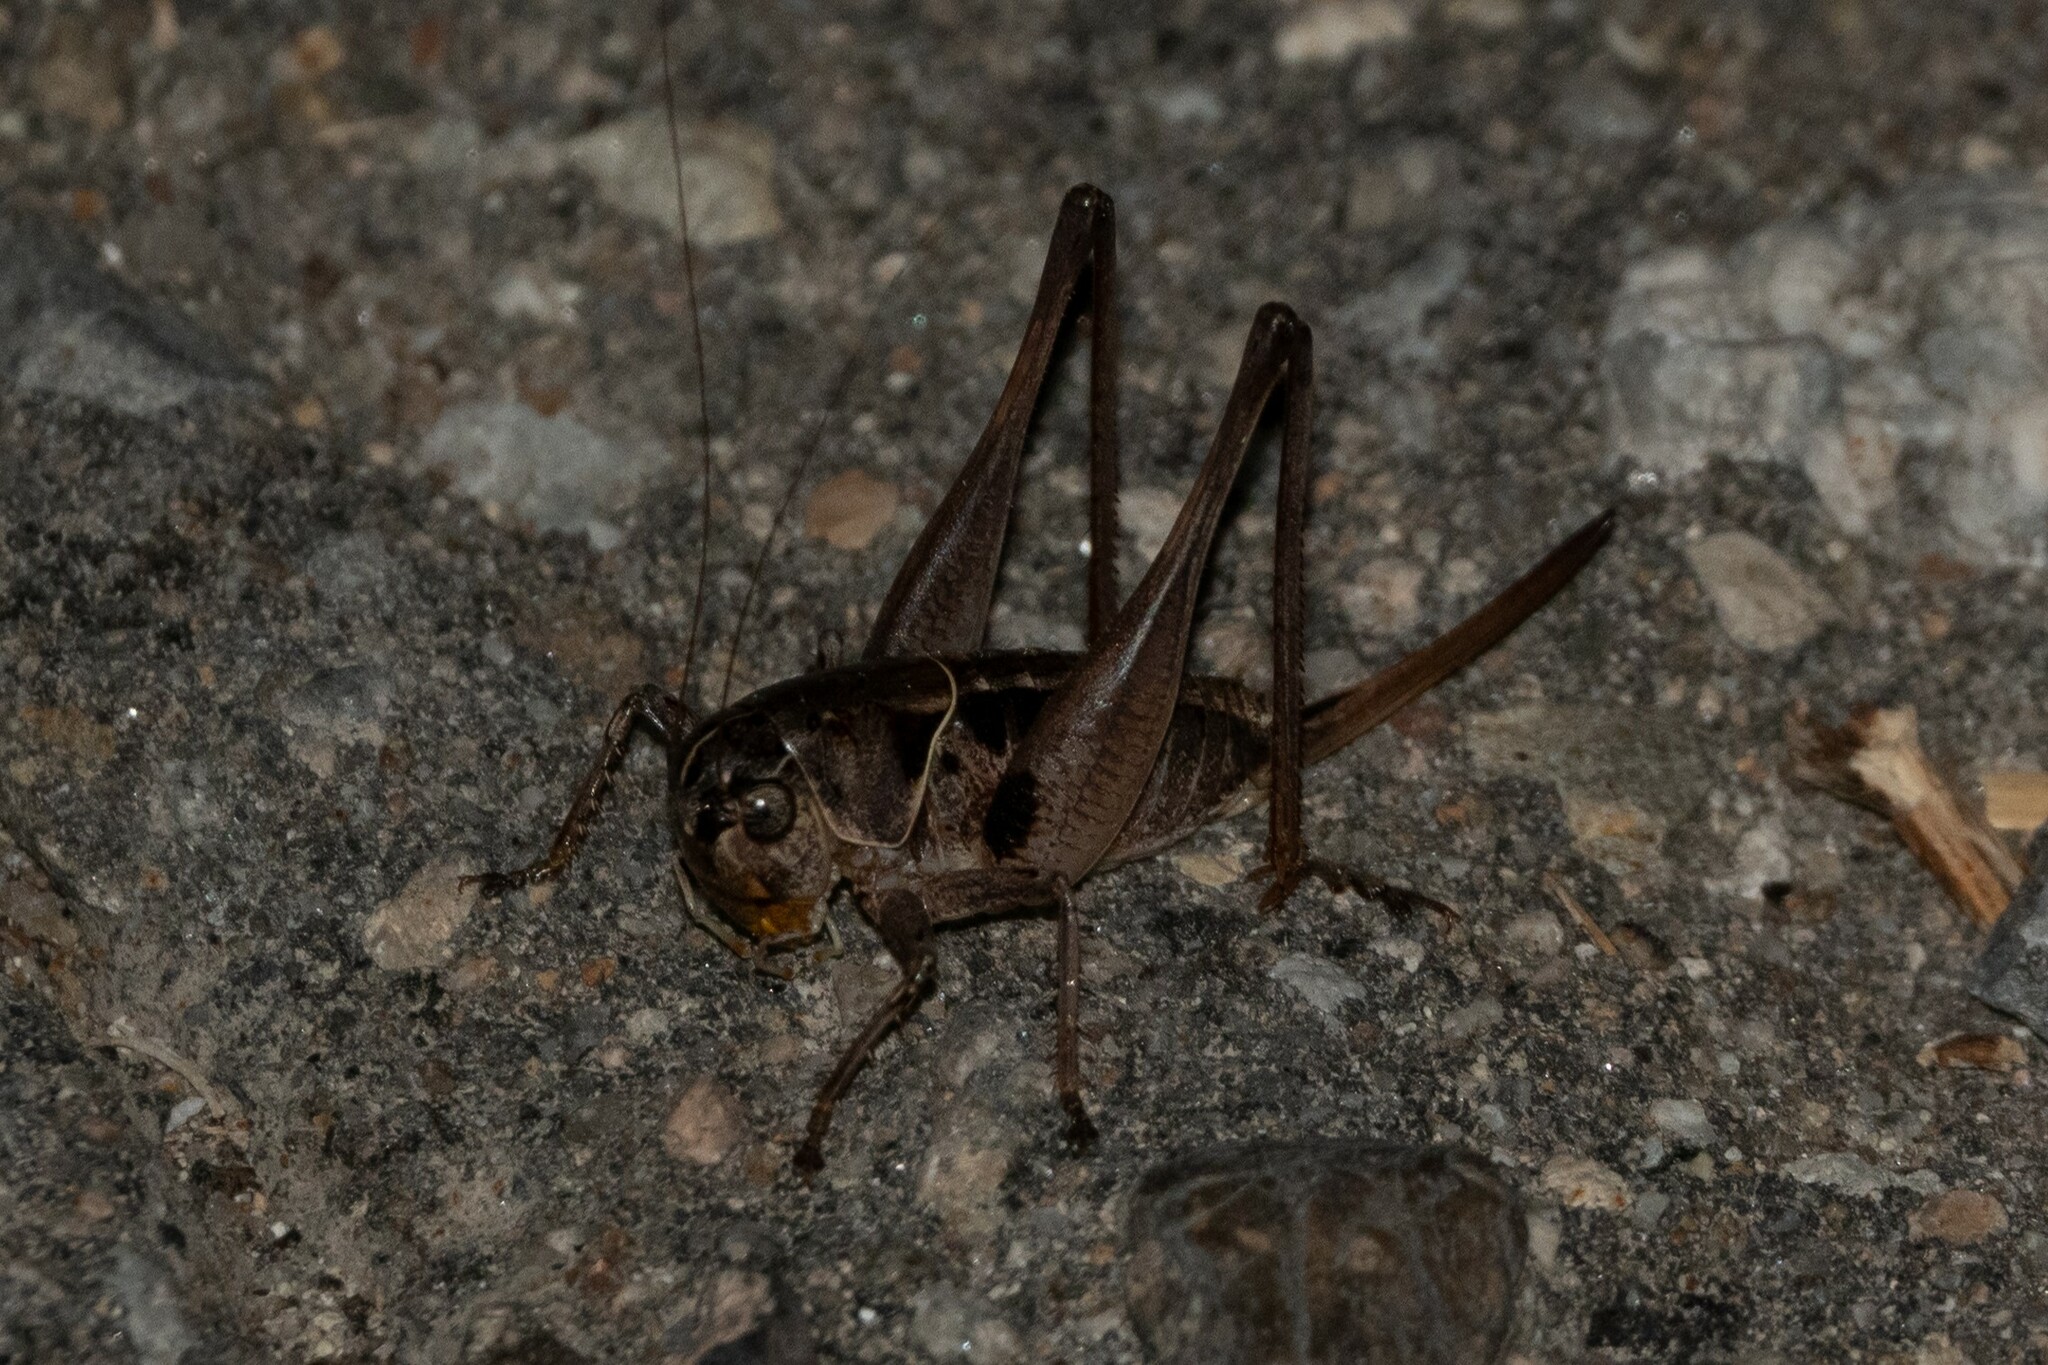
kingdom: Animalia
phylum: Arthropoda
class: Insecta
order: Orthoptera
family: Tettigoniidae
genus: Bucephaloptera
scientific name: Bucephaloptera bucephala
